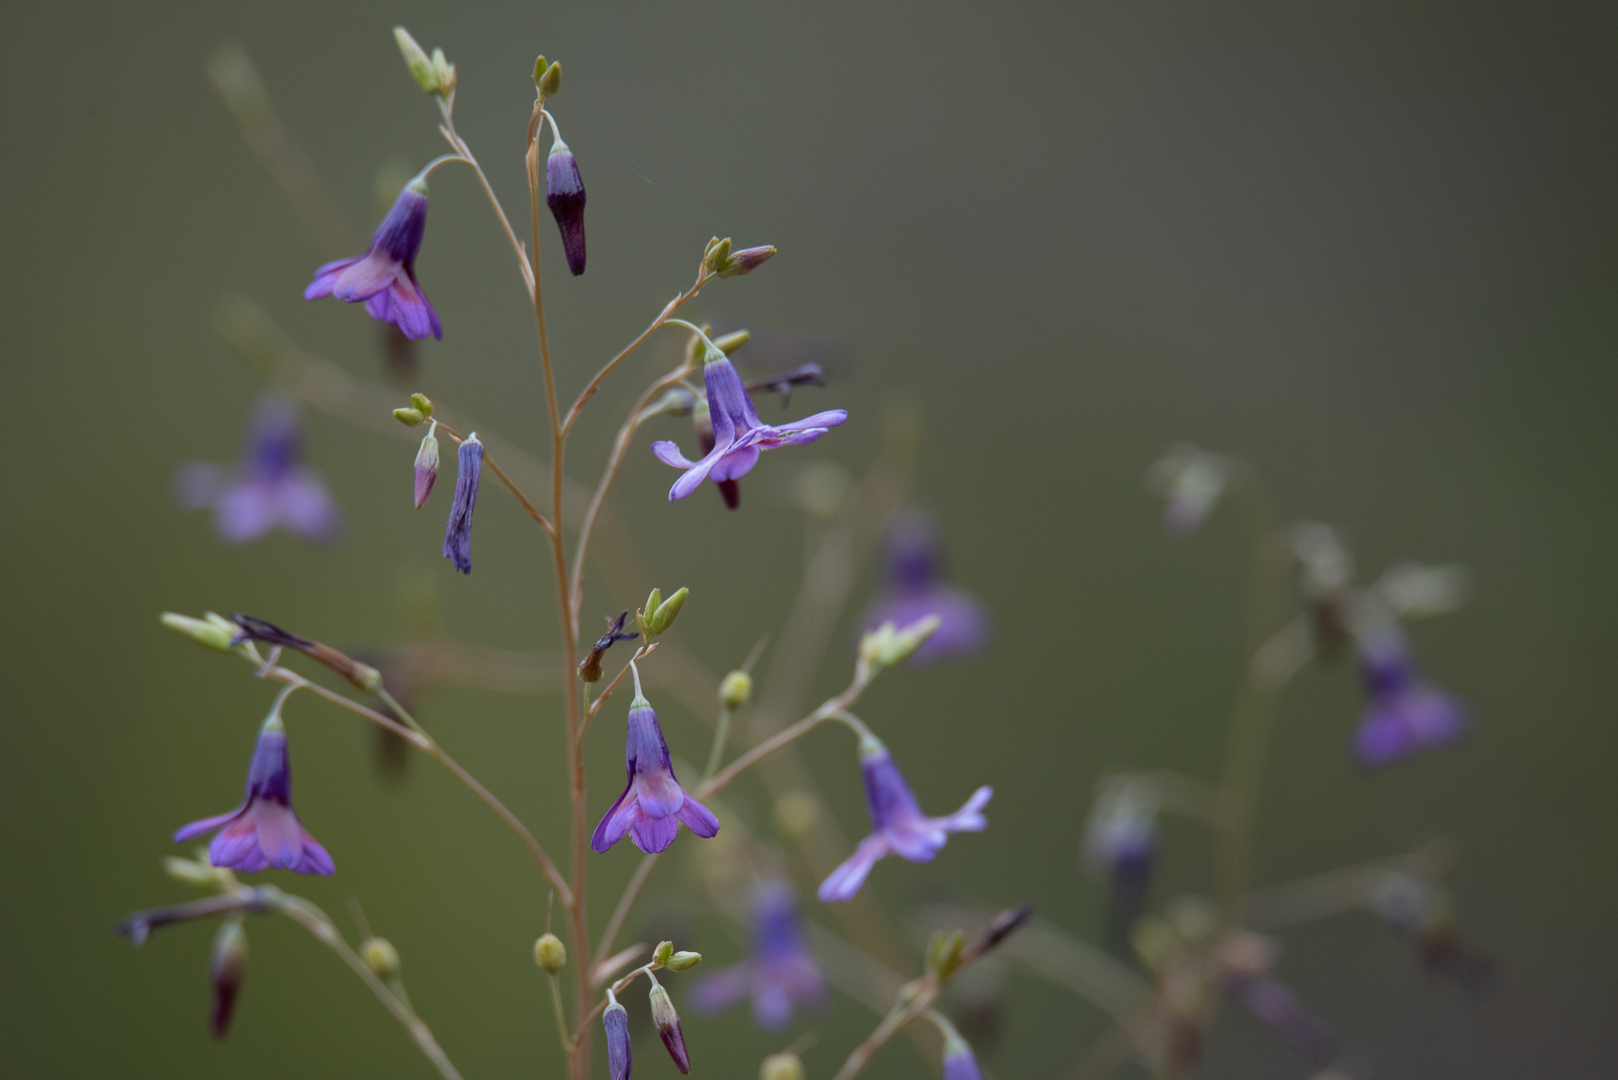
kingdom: Plantae
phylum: Tracheophyta
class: Liliopsida
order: Asparagales
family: Tecophilaeaceae
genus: Conanthera
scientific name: Conanthera trimaculata
